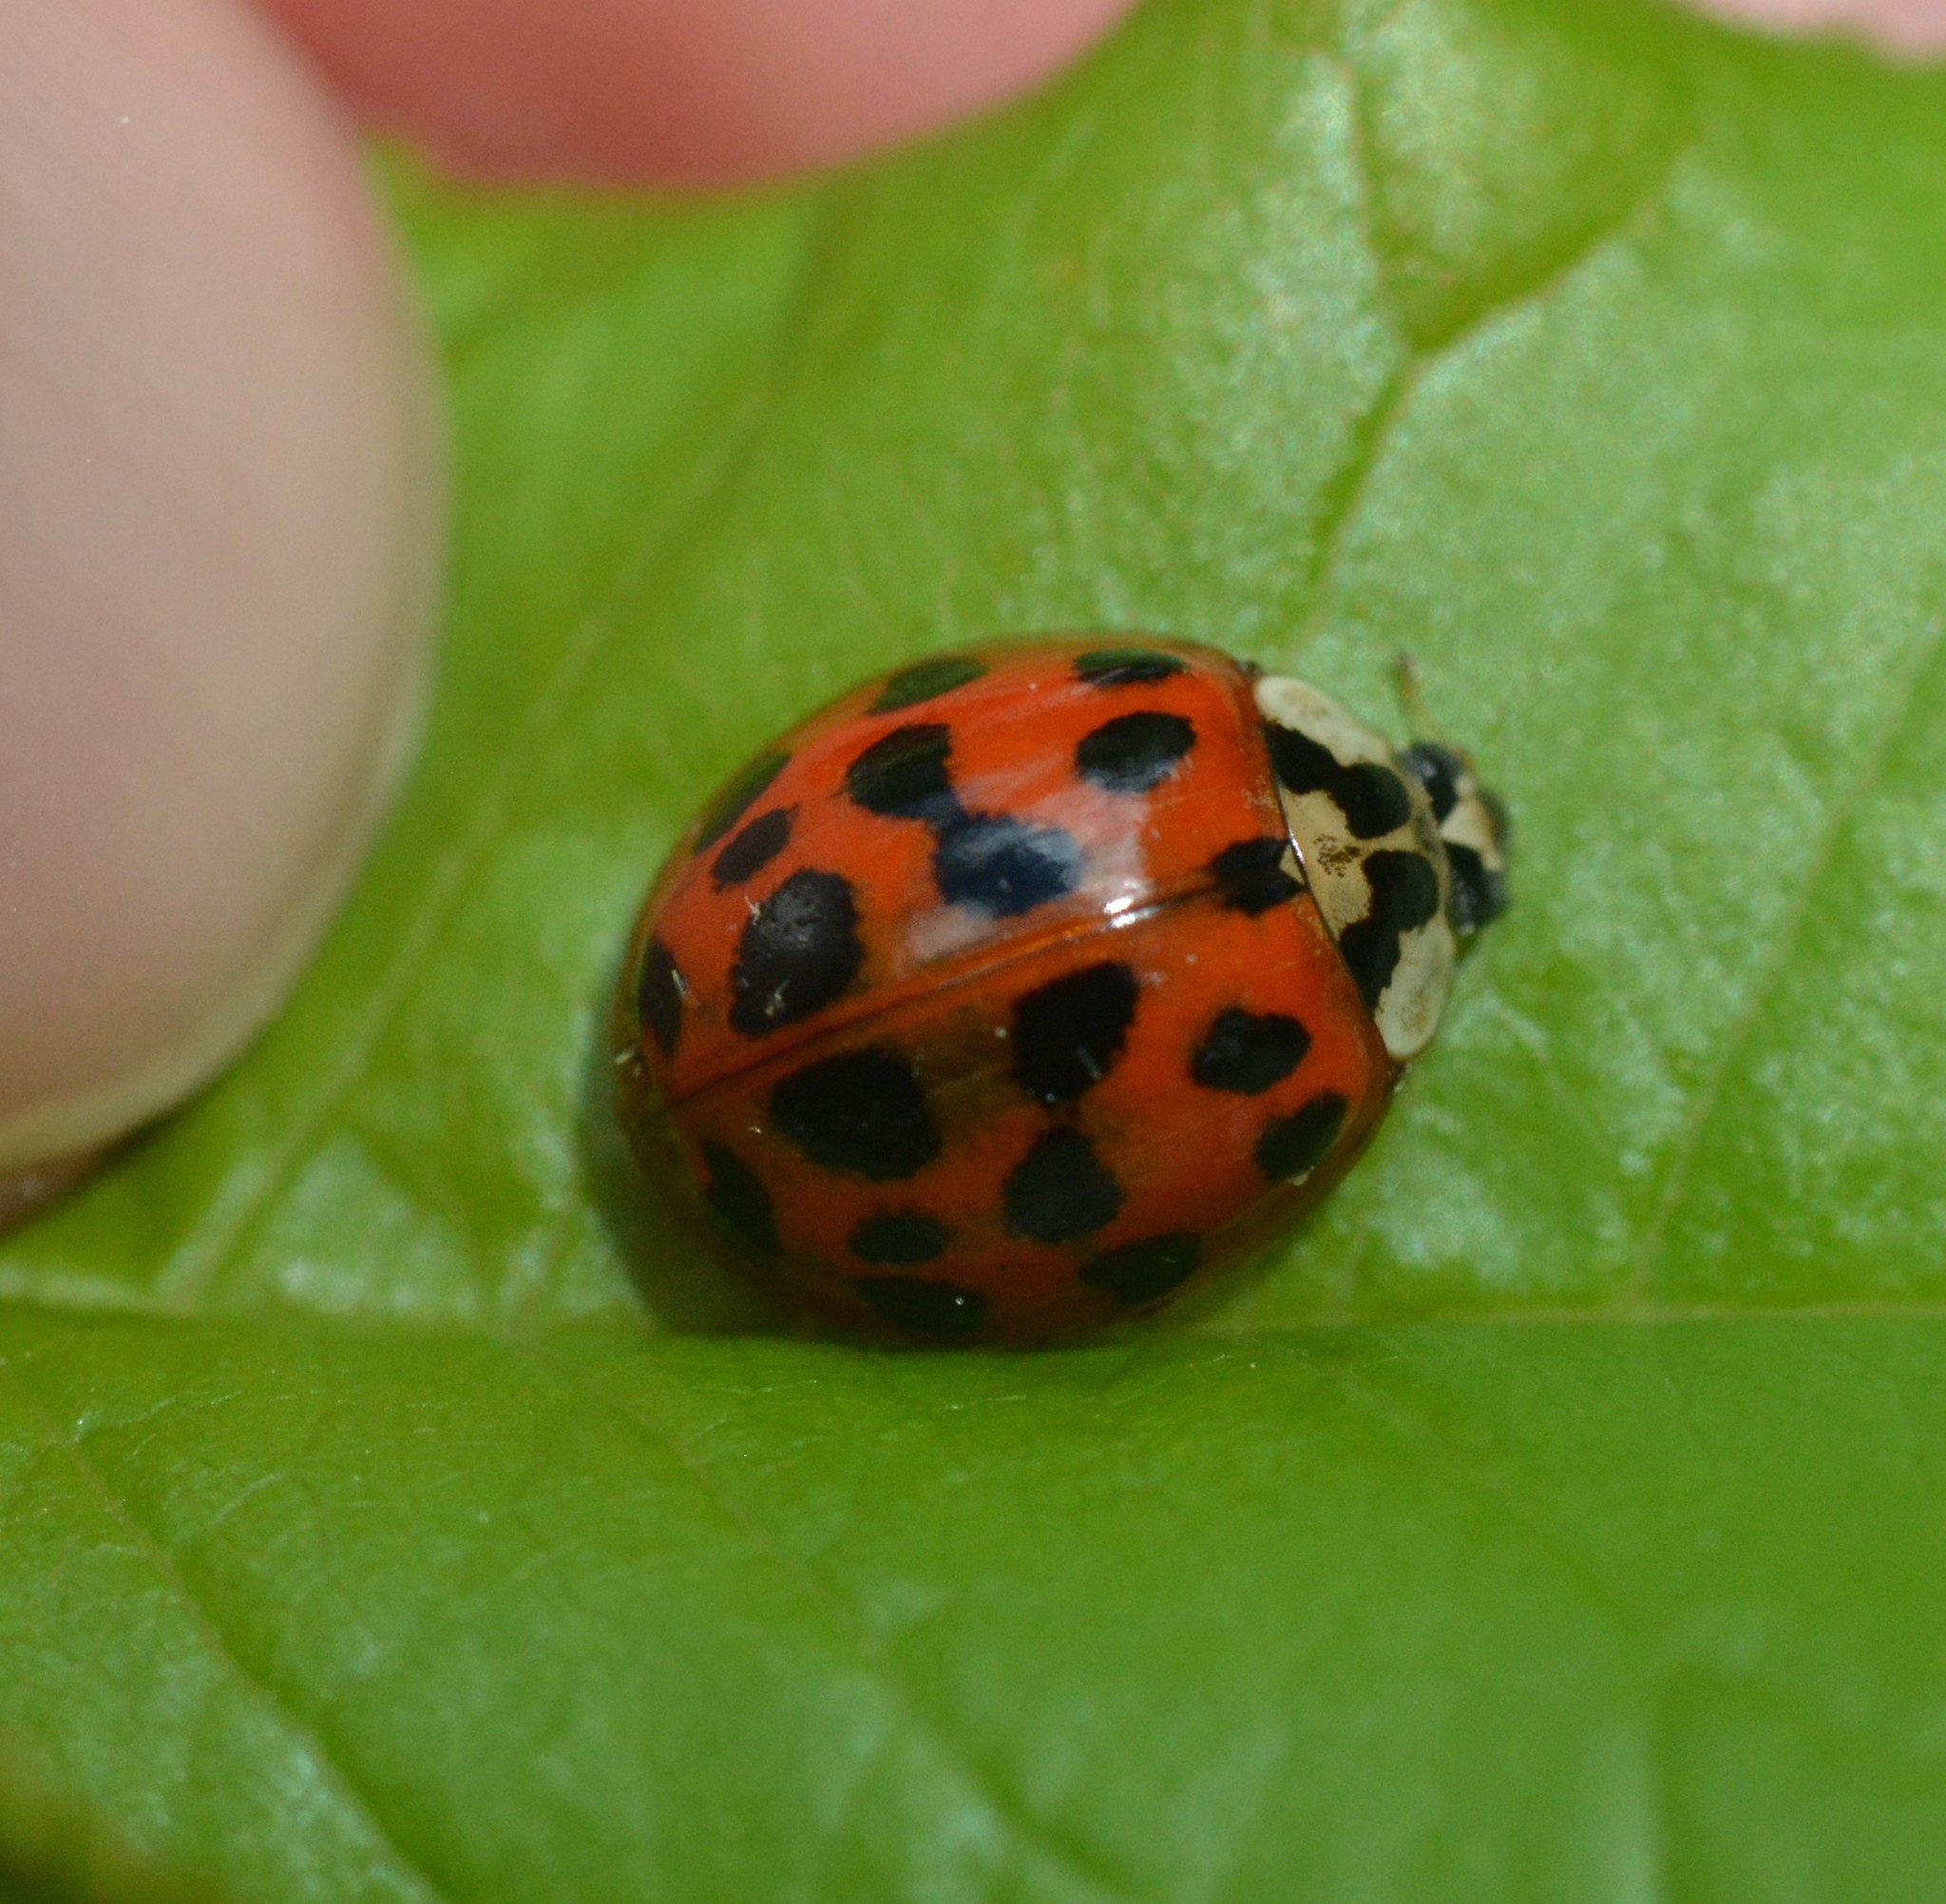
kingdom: Animalia
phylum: Arthropoda
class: Insecta
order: Coleoptera
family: Coccinellidae
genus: Harmonia
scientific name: Harmonia axyridis
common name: Harlequin ladybird
